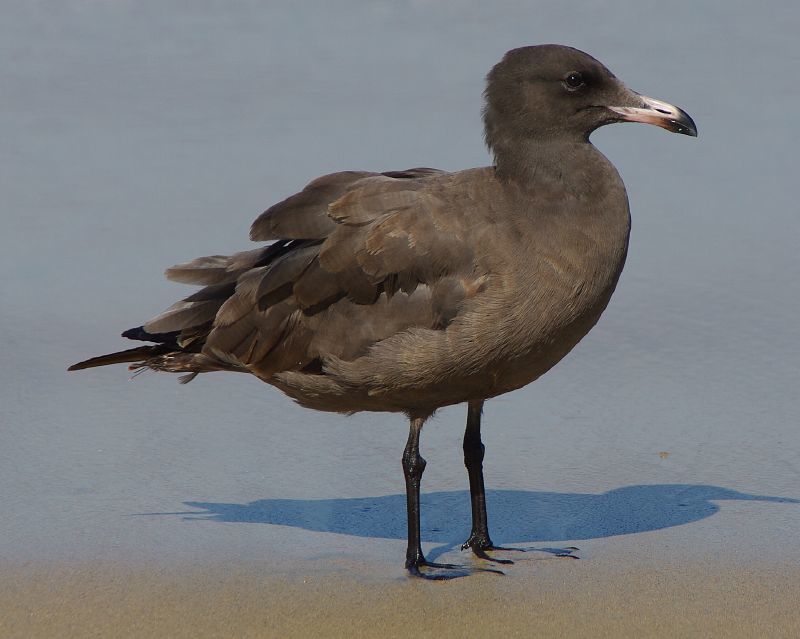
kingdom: Animalia
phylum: Chordata
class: Aves
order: Charadriiformes
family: Laridae
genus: Larus
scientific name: Larus heermanni
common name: Heermann's gull
